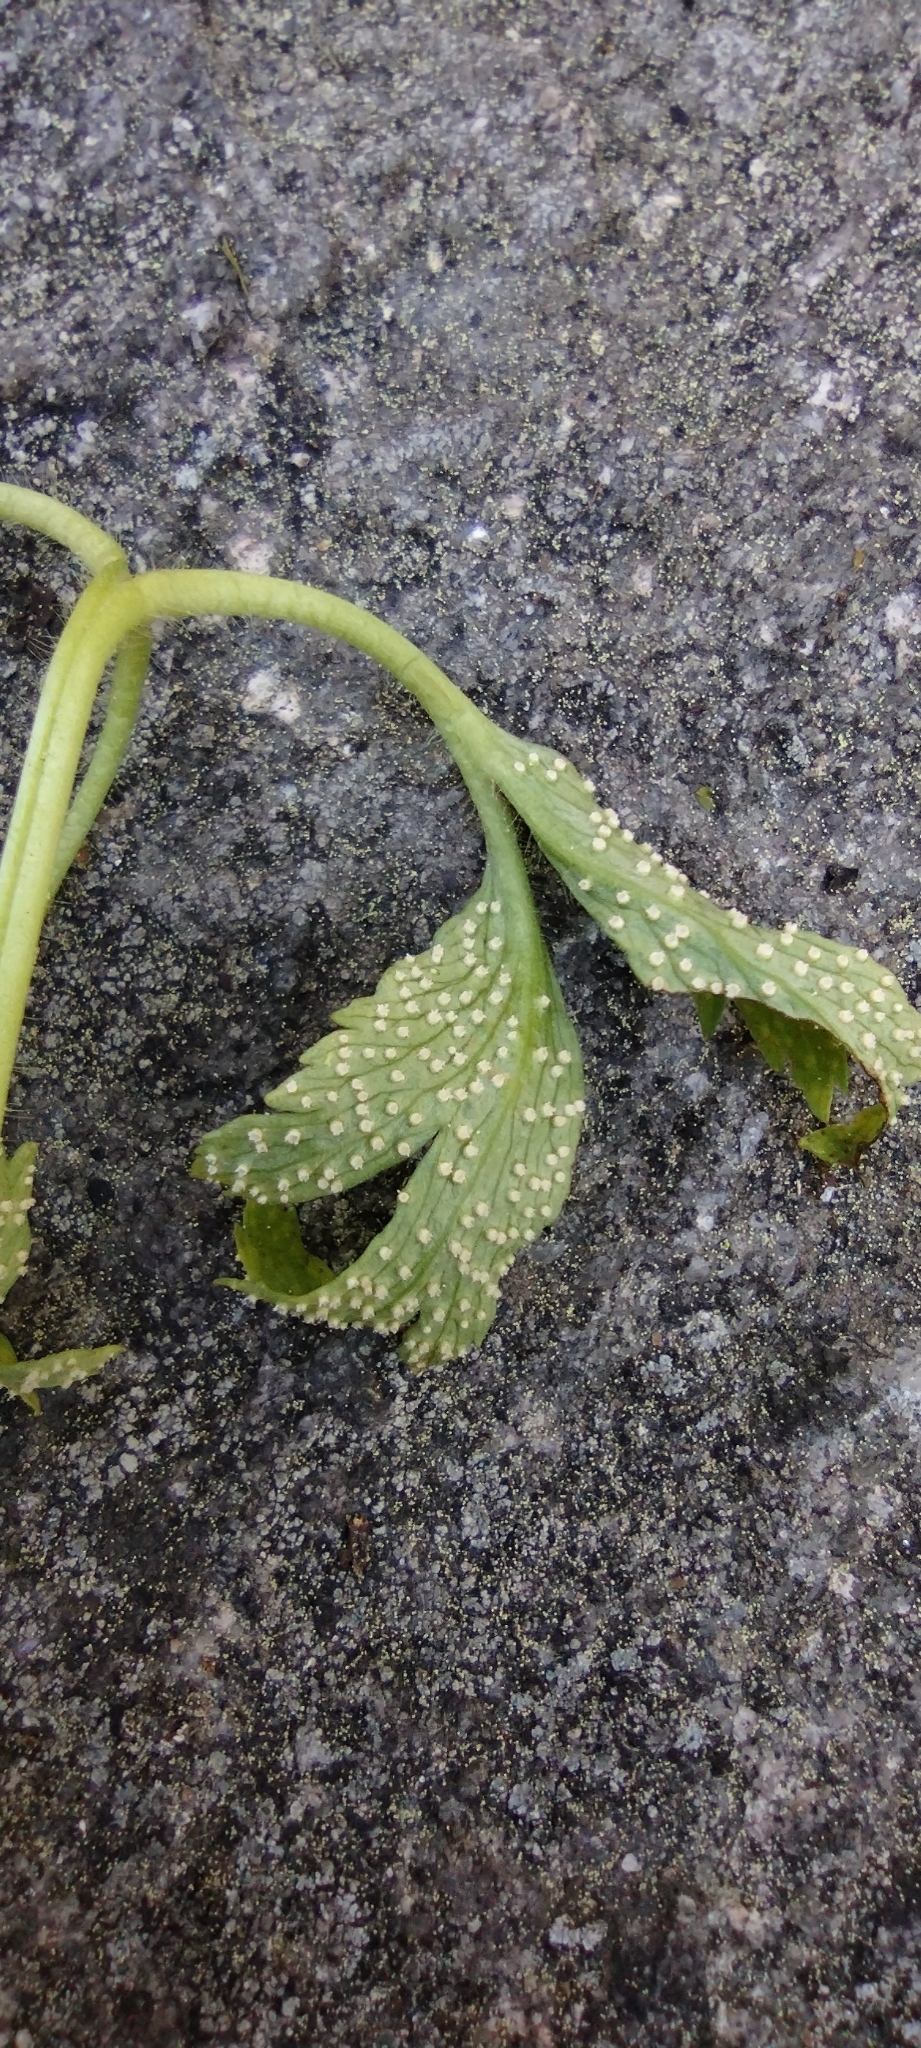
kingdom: Fungi
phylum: Basidiomycota
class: Pucciniomycetes
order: Pucciniales
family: Ochropsoraceae
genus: Ochropsora
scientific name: Ochropsora ariae
